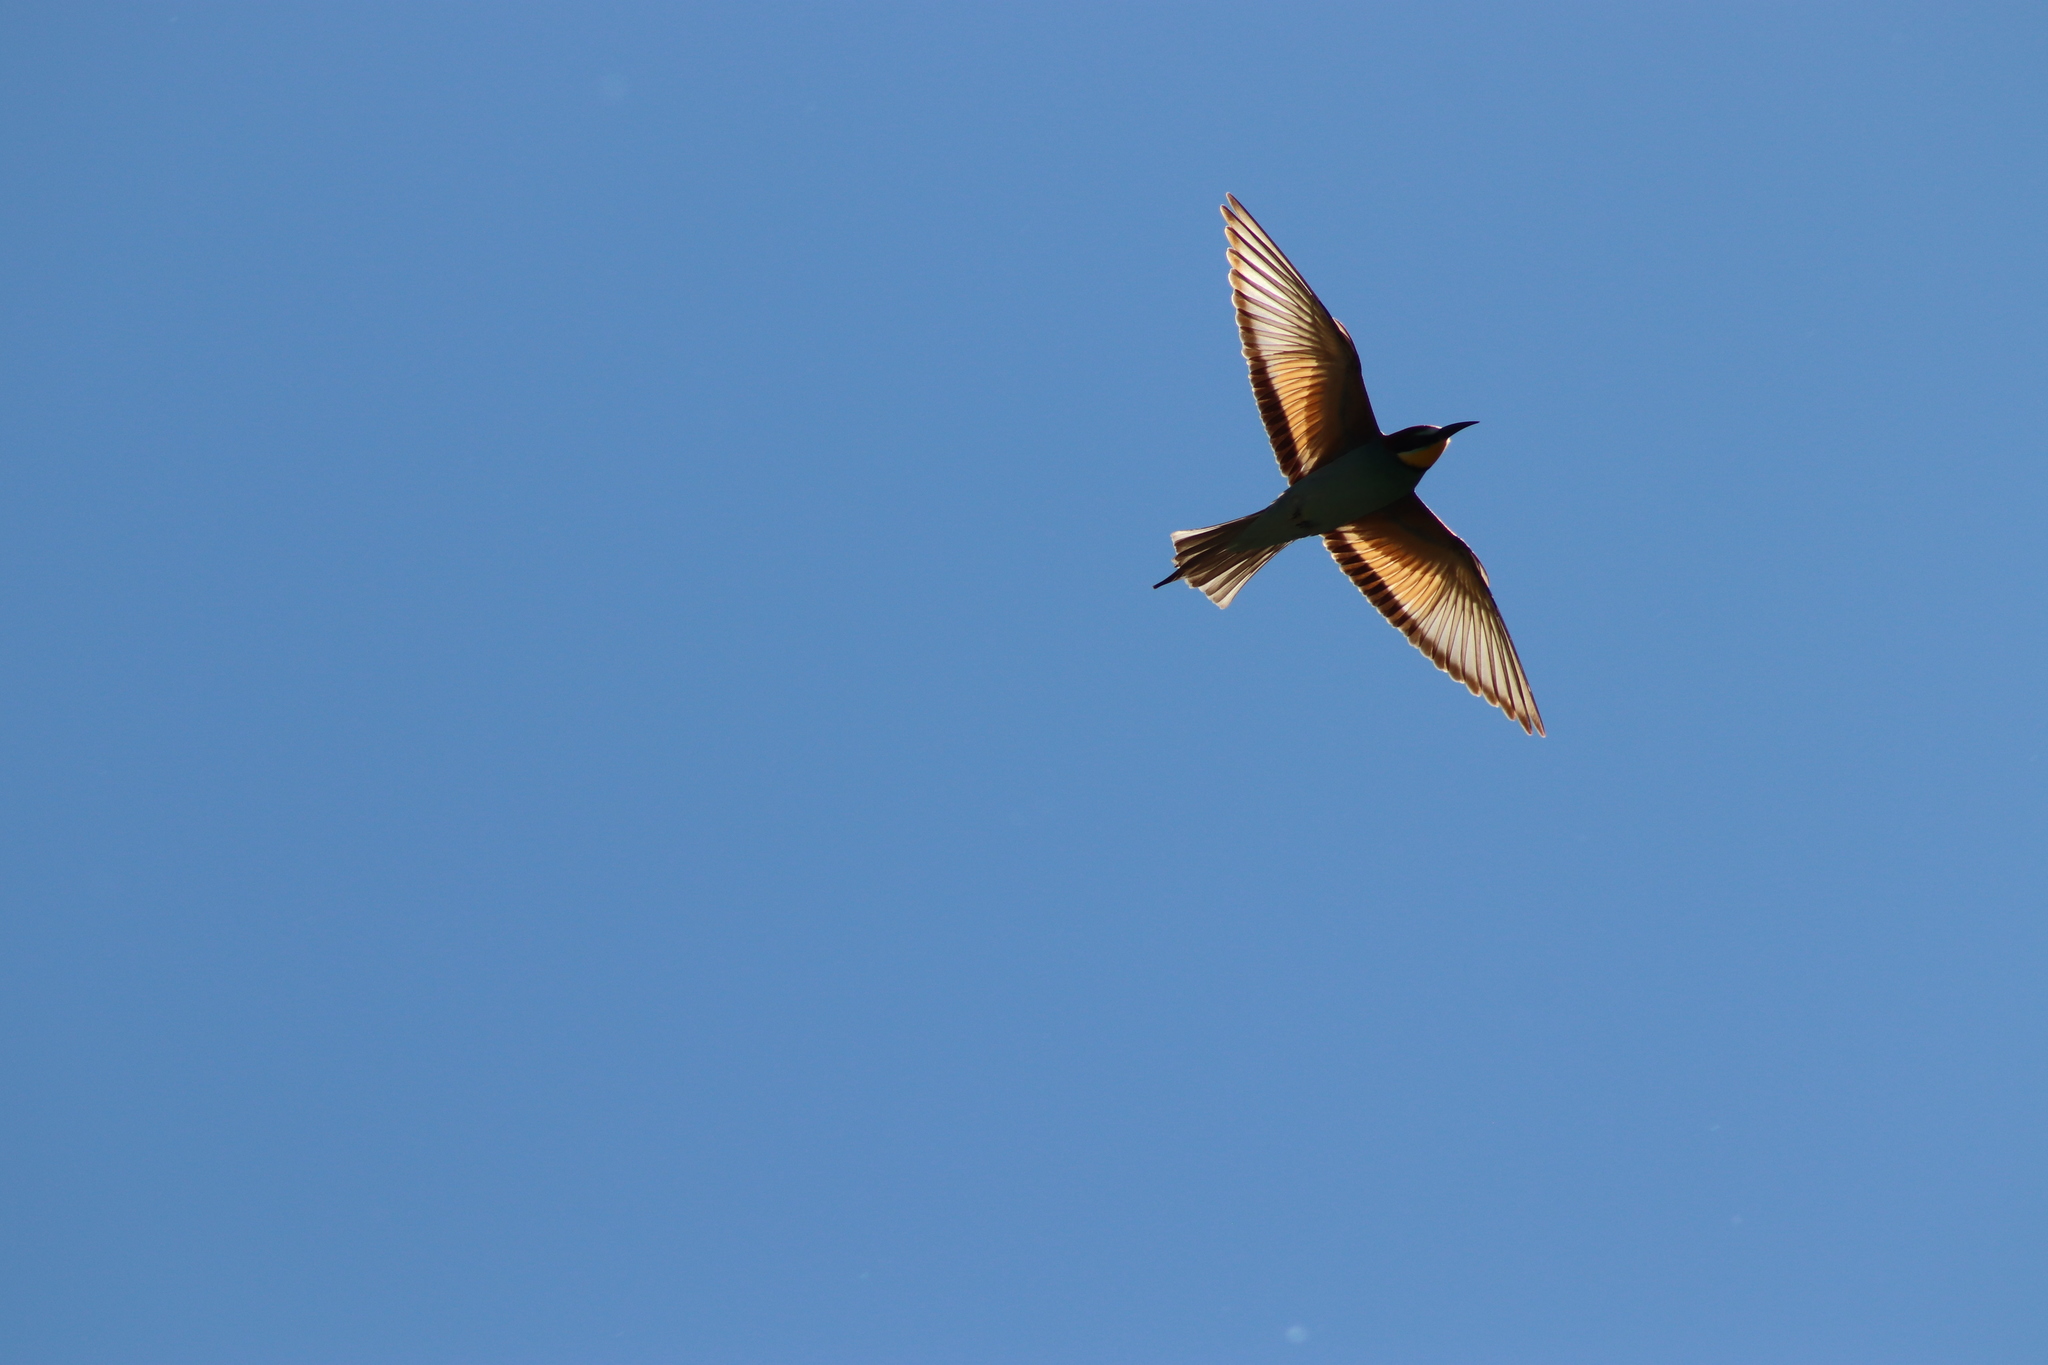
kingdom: Animalia
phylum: Chordata
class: Aves
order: Coraciiformes
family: Meropidae
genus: Merops
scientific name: Merops apiaster
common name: European bee-eater
